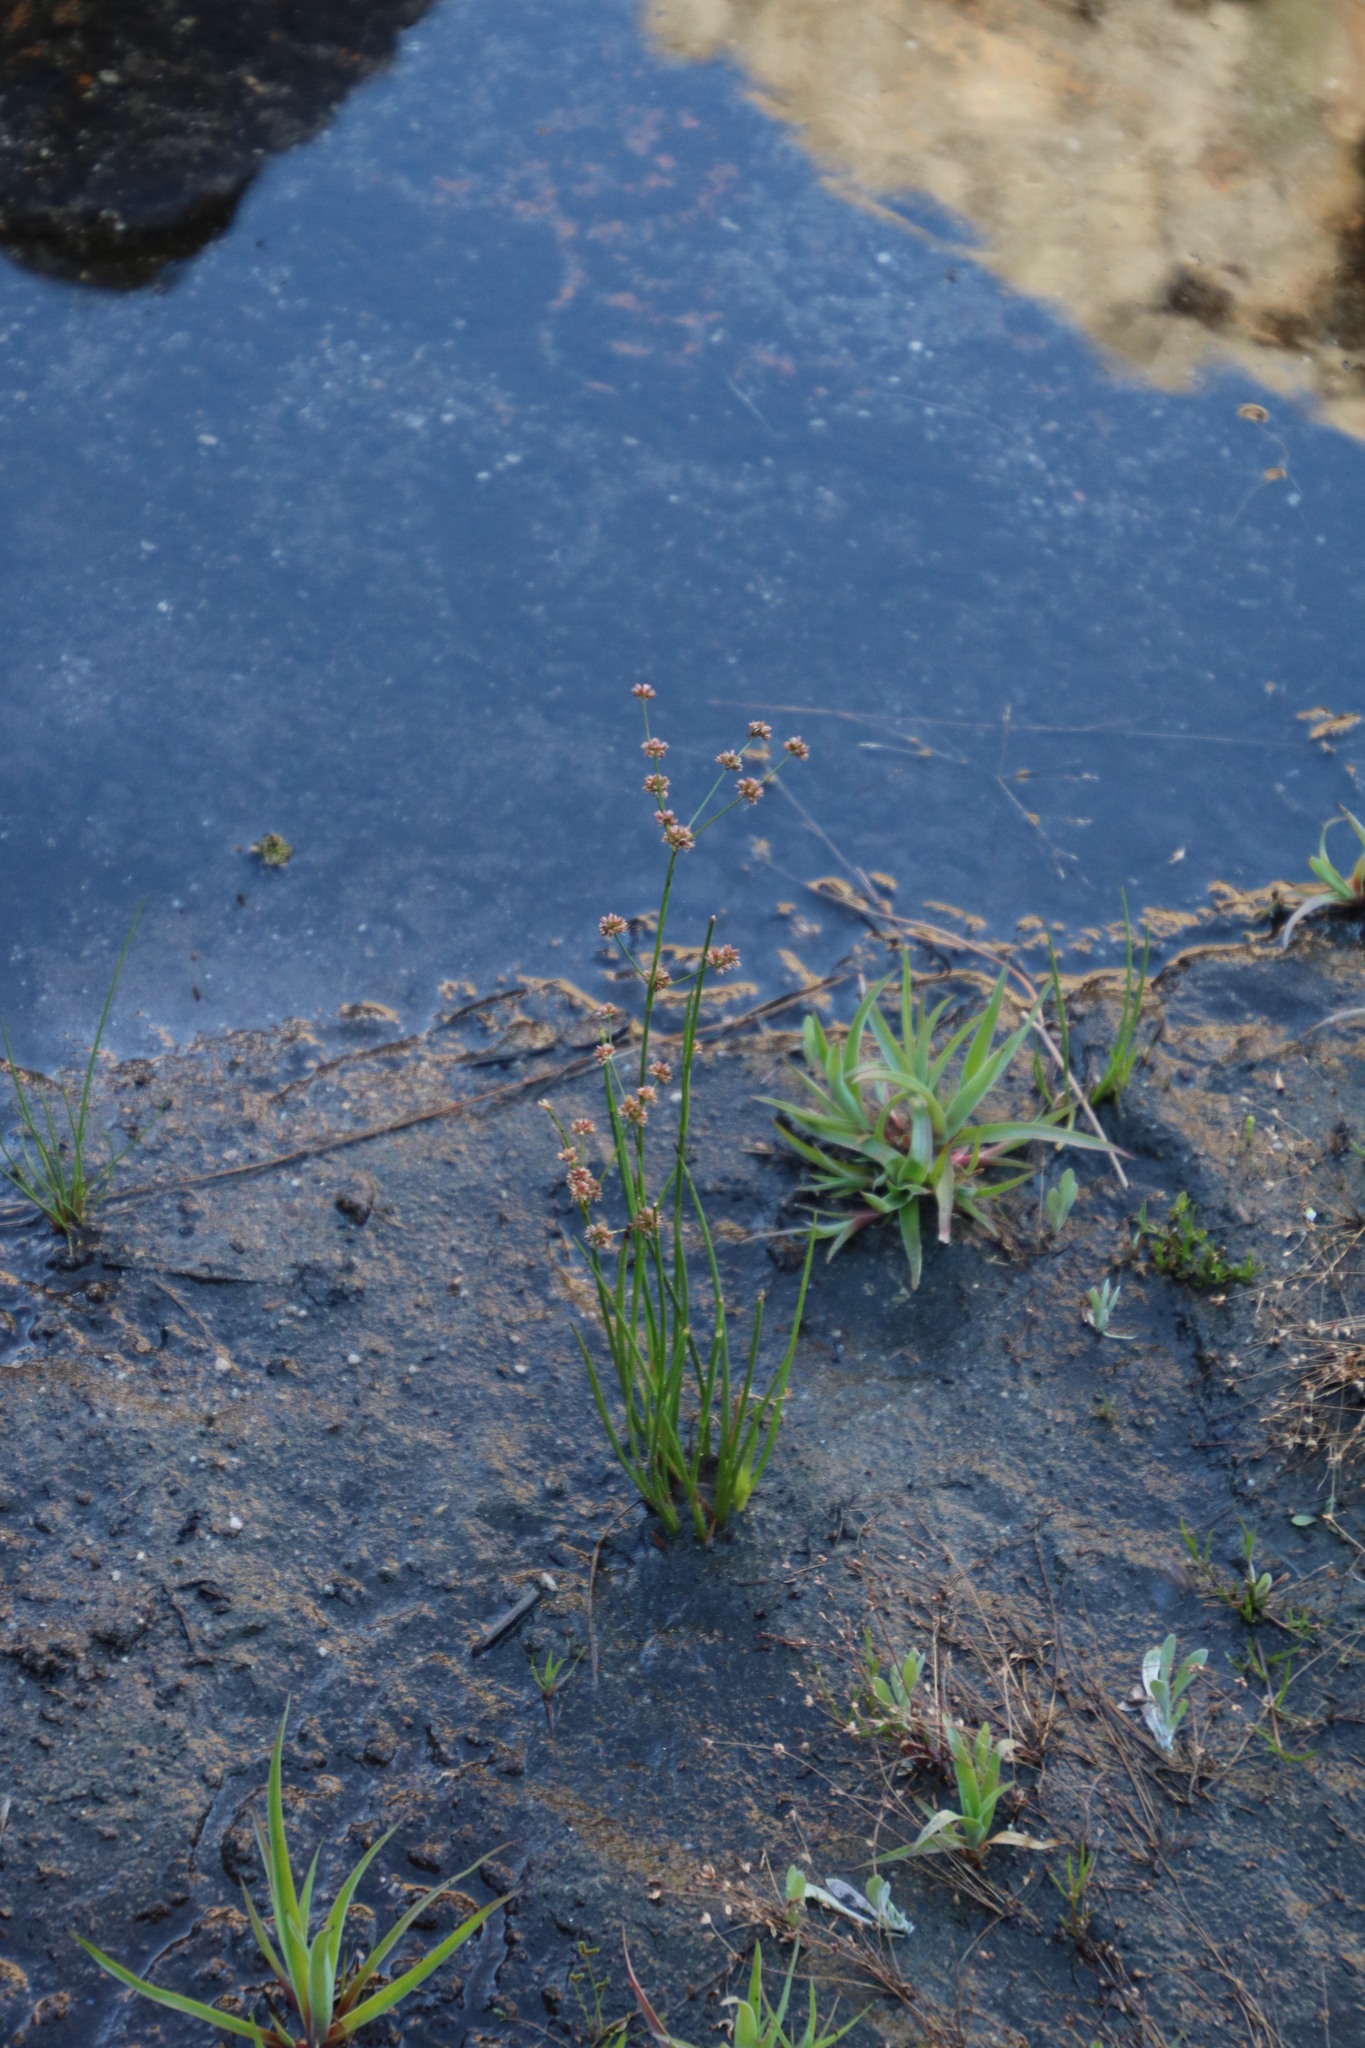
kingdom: Plantae
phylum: Tracheophyta
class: Liliopsida
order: Poales
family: Juncaceae
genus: Juncus
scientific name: Juncus lomatophyllus
